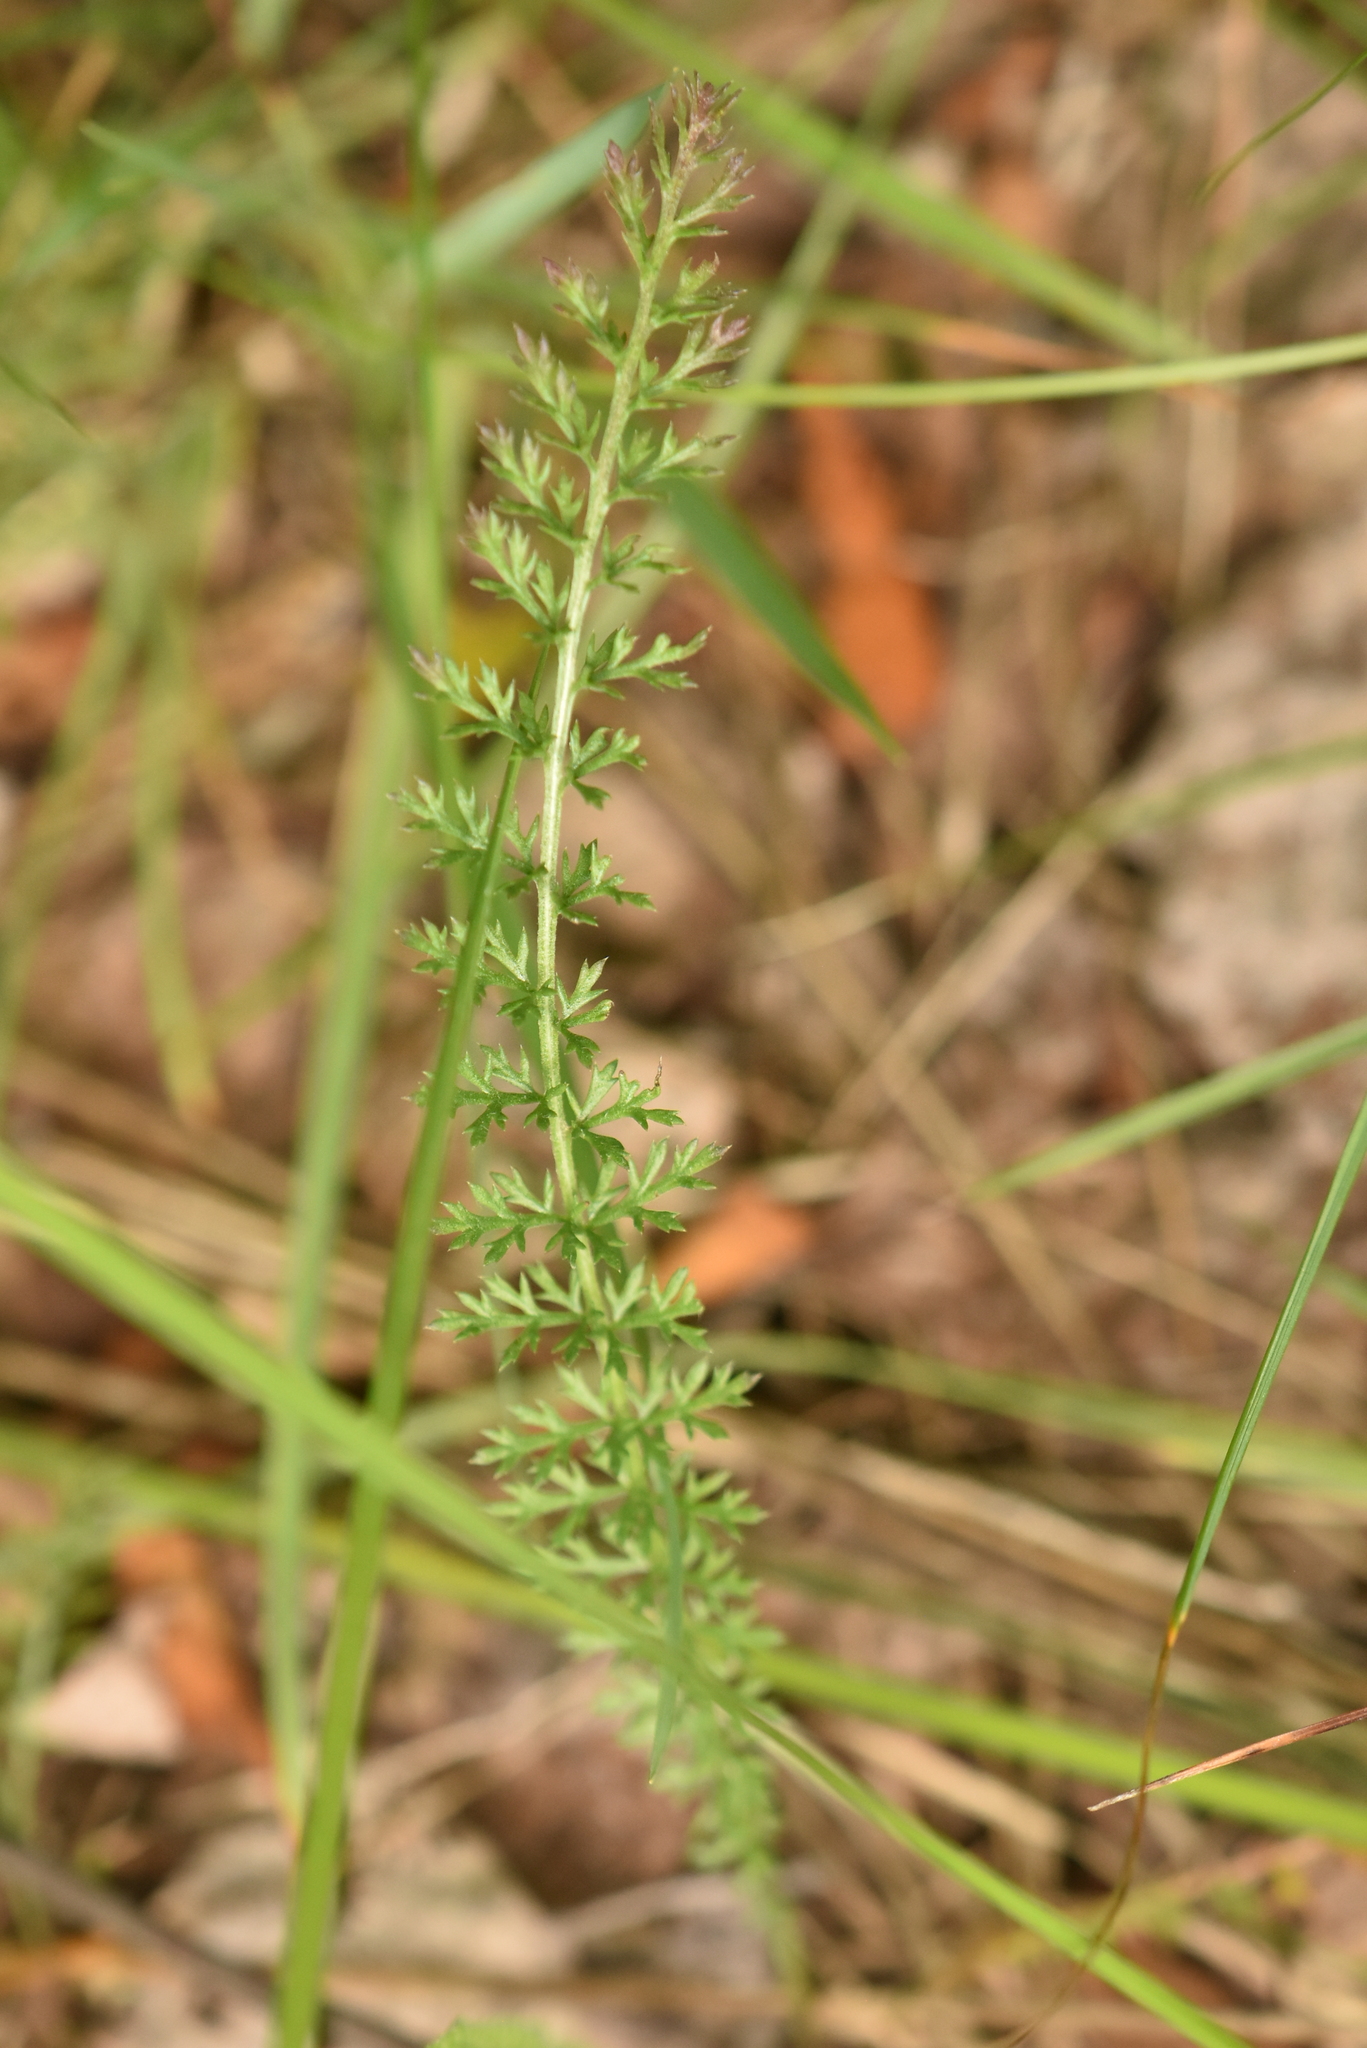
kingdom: Plantae
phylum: Tracheophyta
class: Magnoliopsida
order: Asterales
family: Asteraceae
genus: Achillea
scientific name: Achillea millefolium
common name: Yarrow
